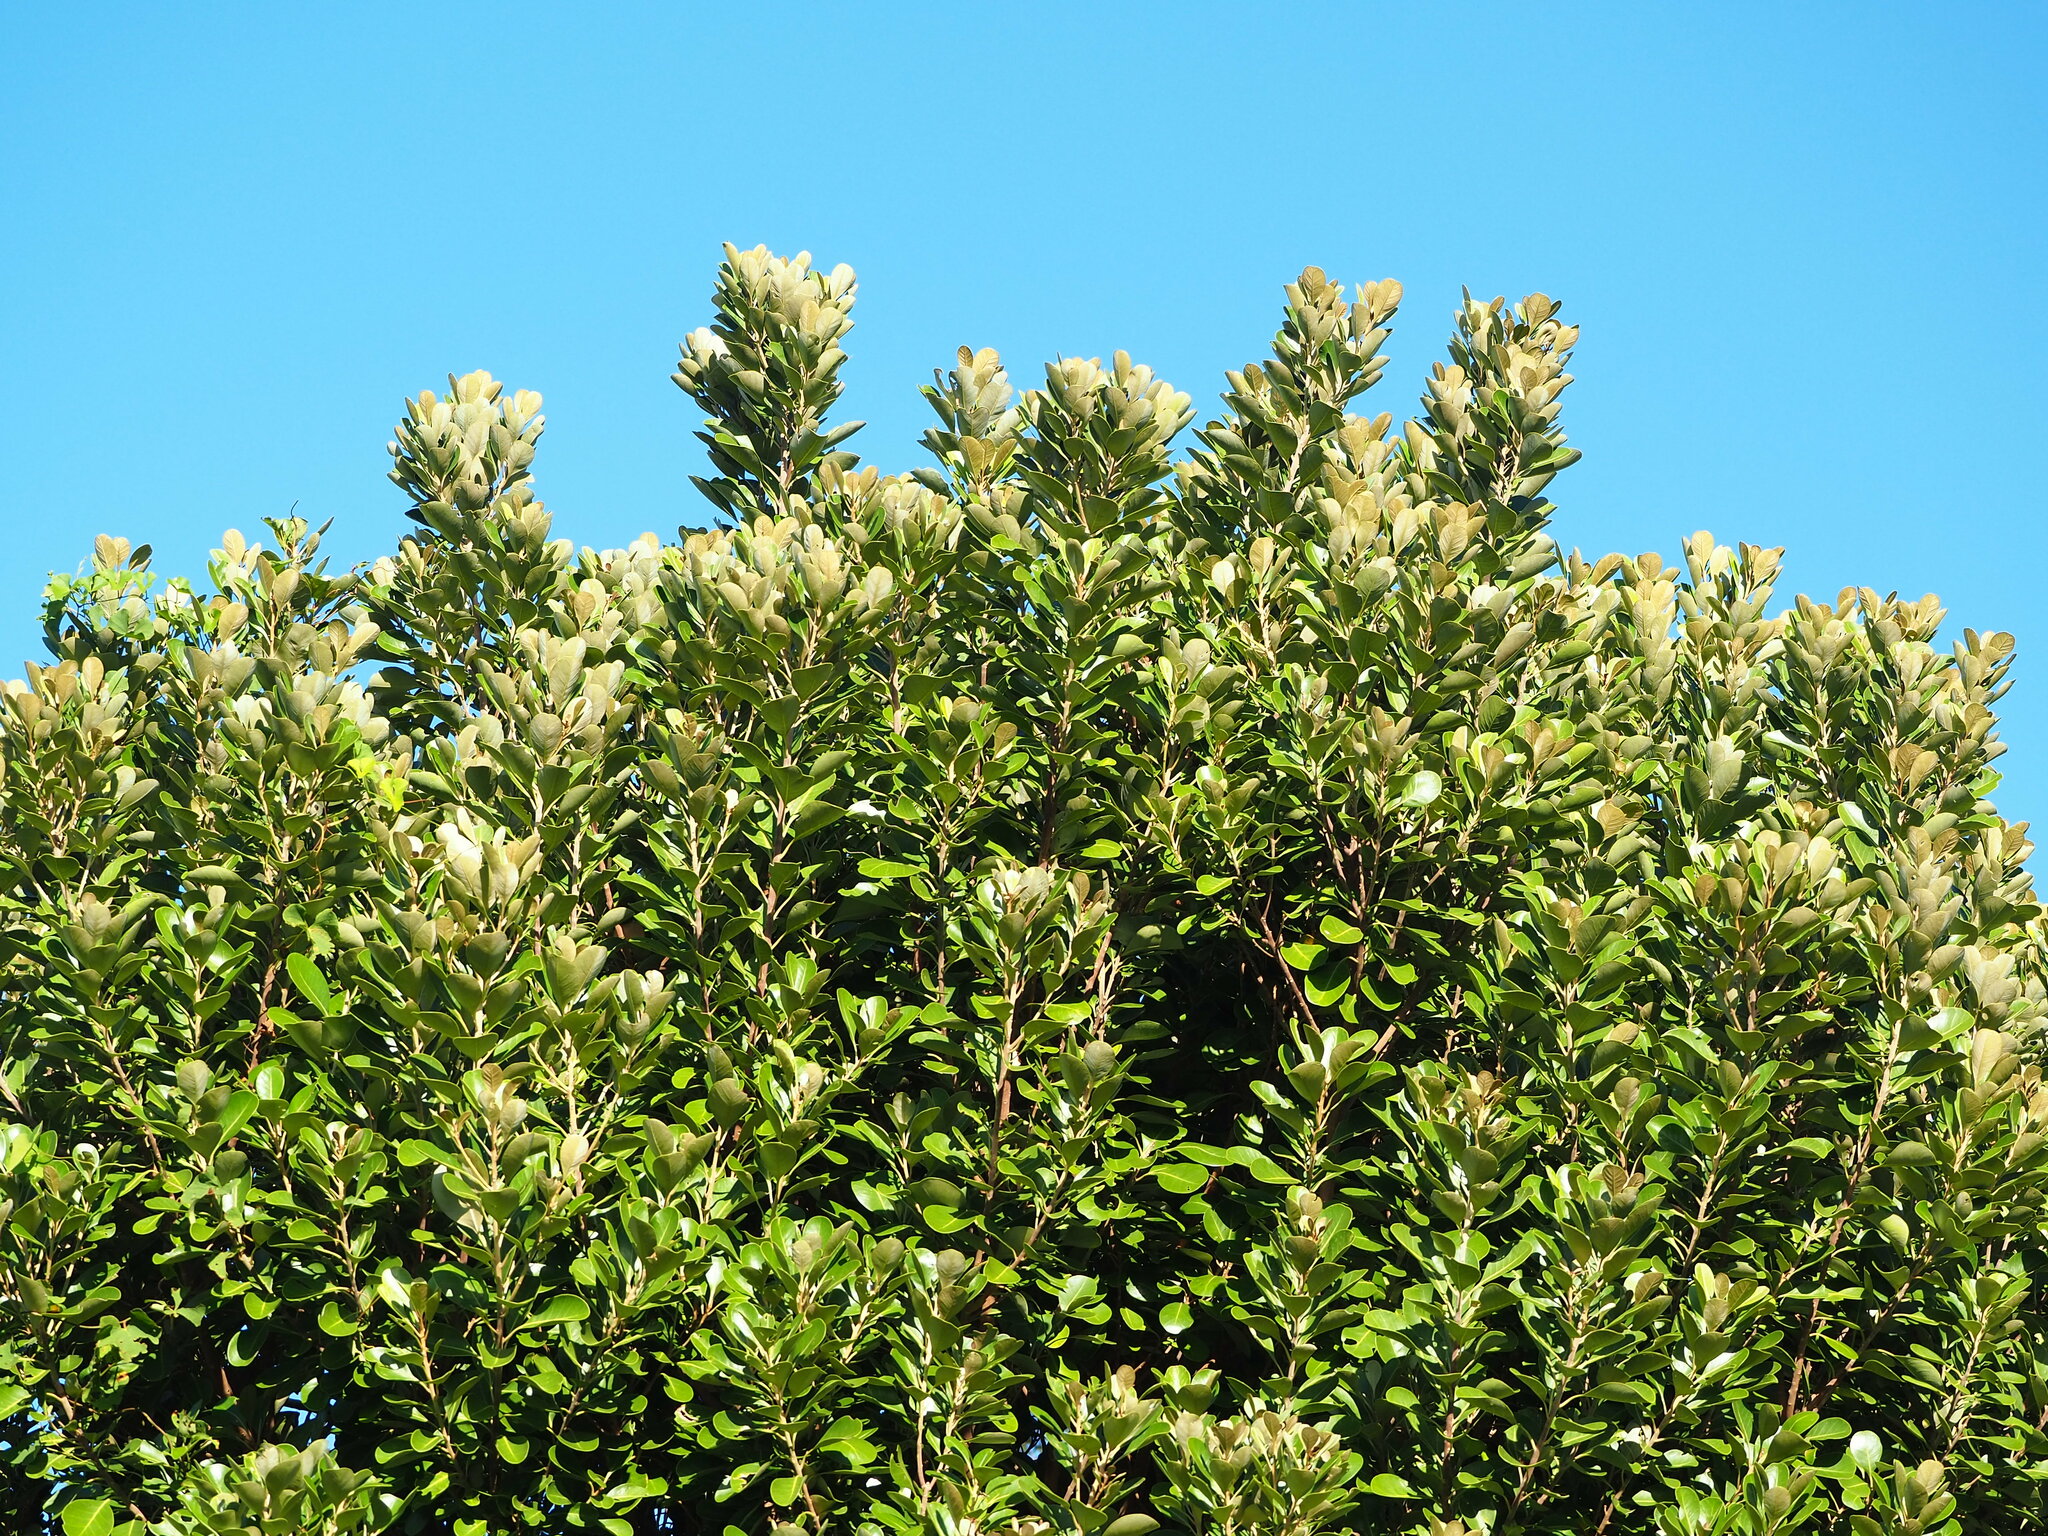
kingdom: Plantae
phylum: Tracheophyta
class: Magnoliopsida
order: Ericales
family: Sapotaceae
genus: Planchonella
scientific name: Planchonella obovata
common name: Black-ash
